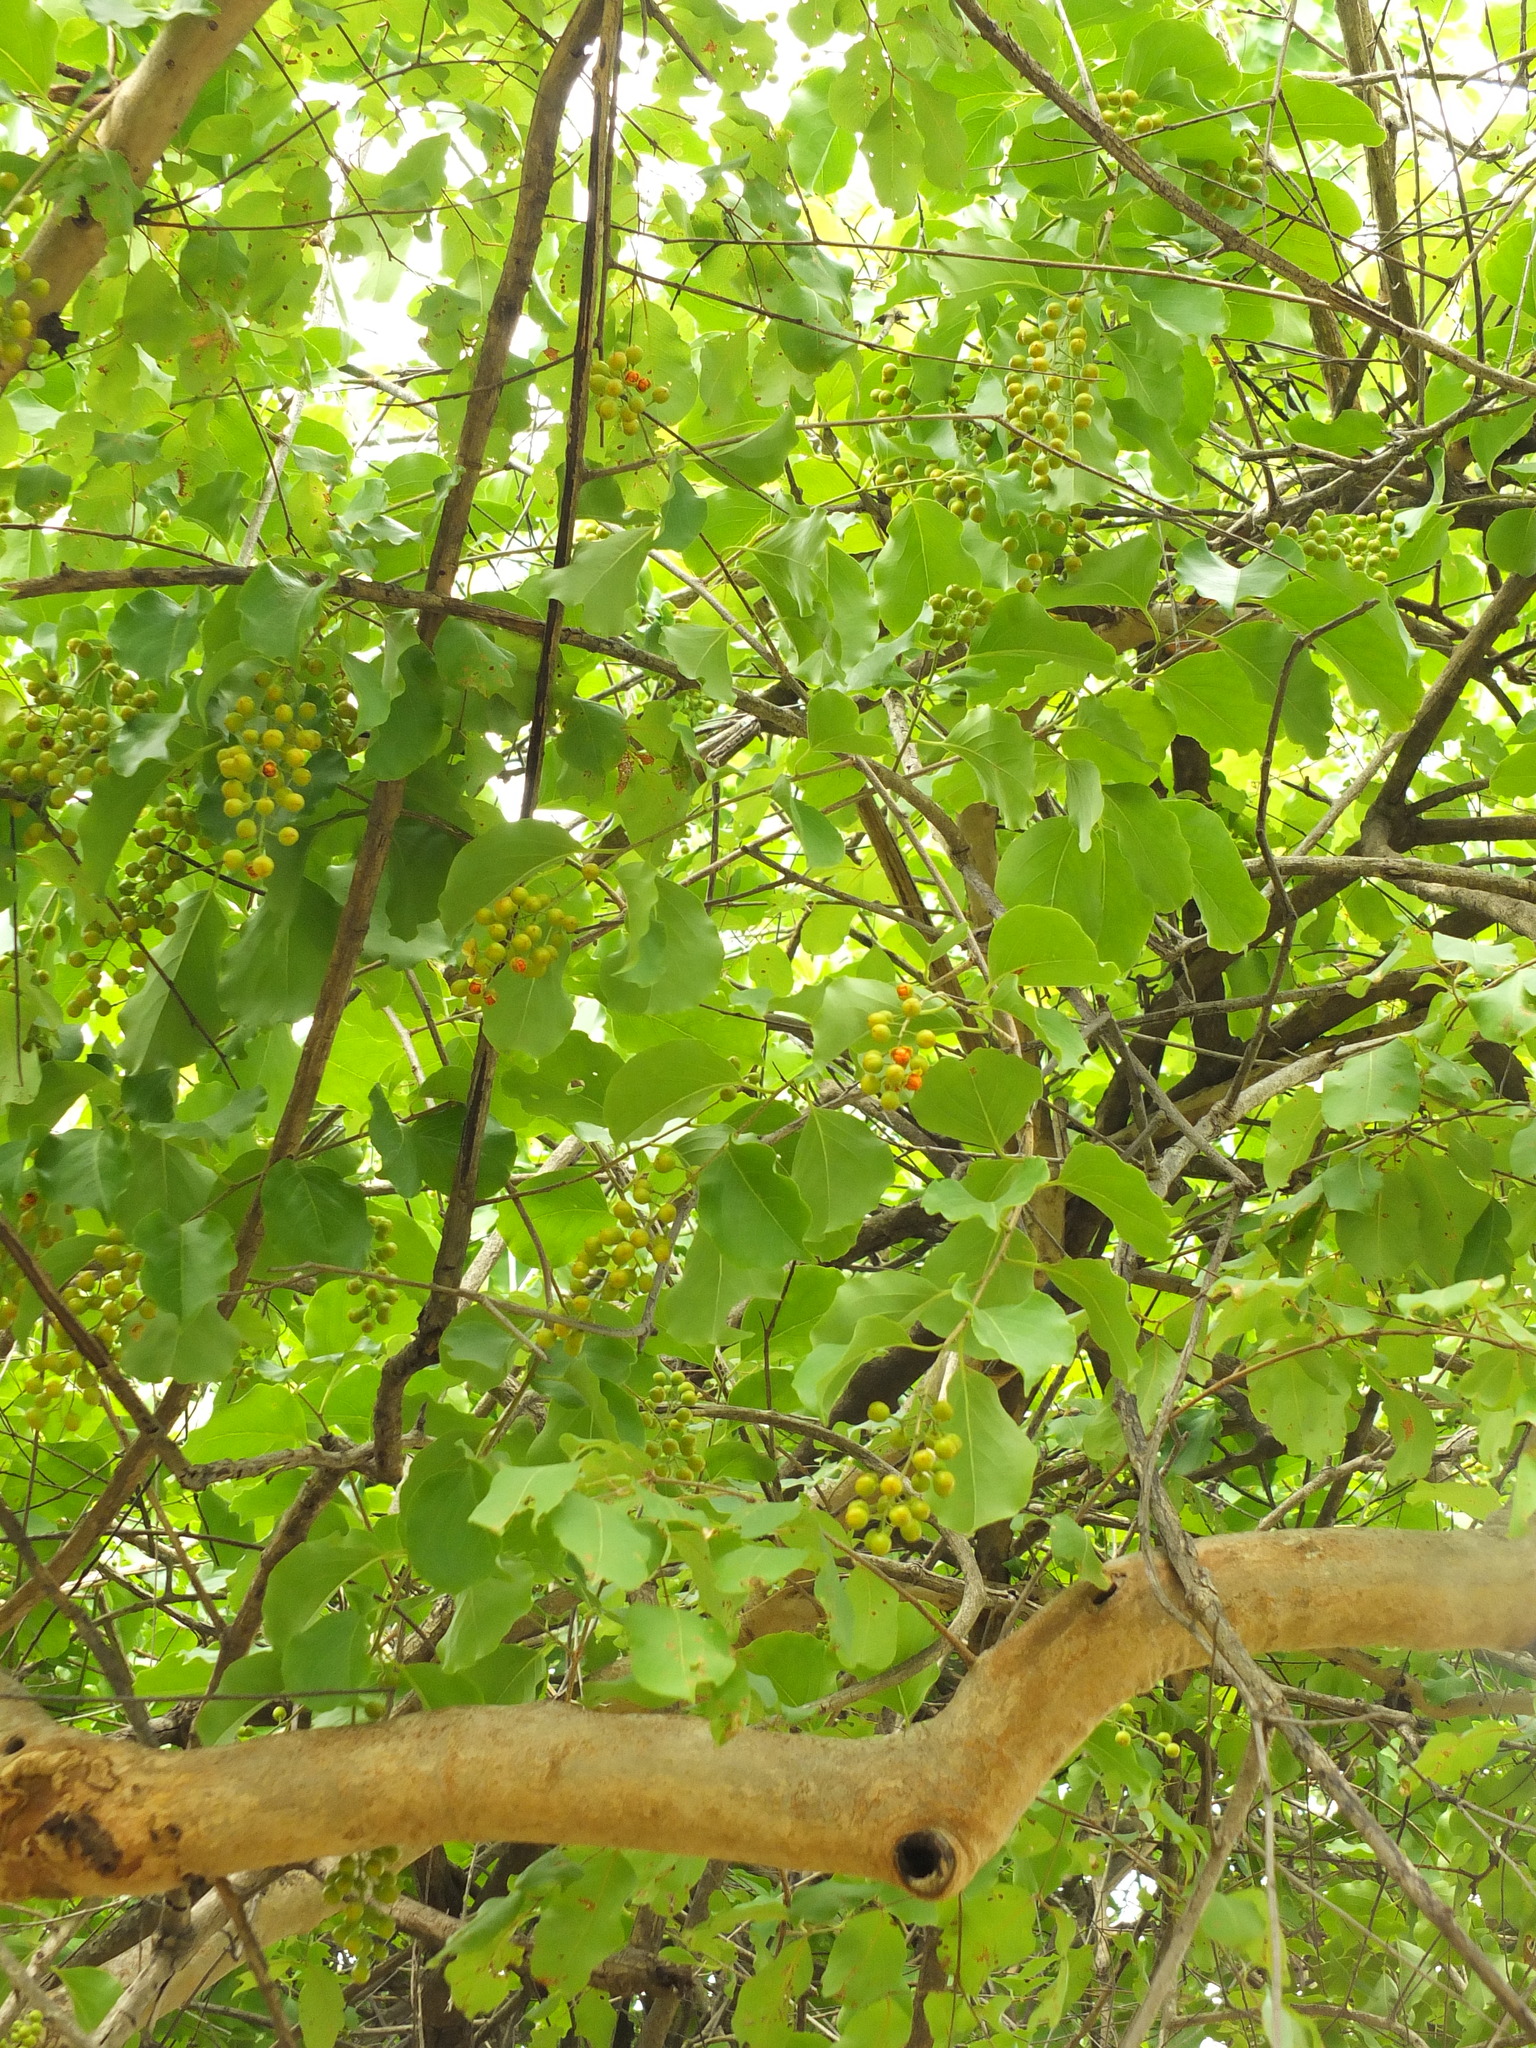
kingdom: Plantae
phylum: Tracheophyta
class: Magnoliopsida
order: Celastrales
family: Celastraceae
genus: Celastrus
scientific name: Celastrus paniculatus
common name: Oriental bittersweet; staff vine
